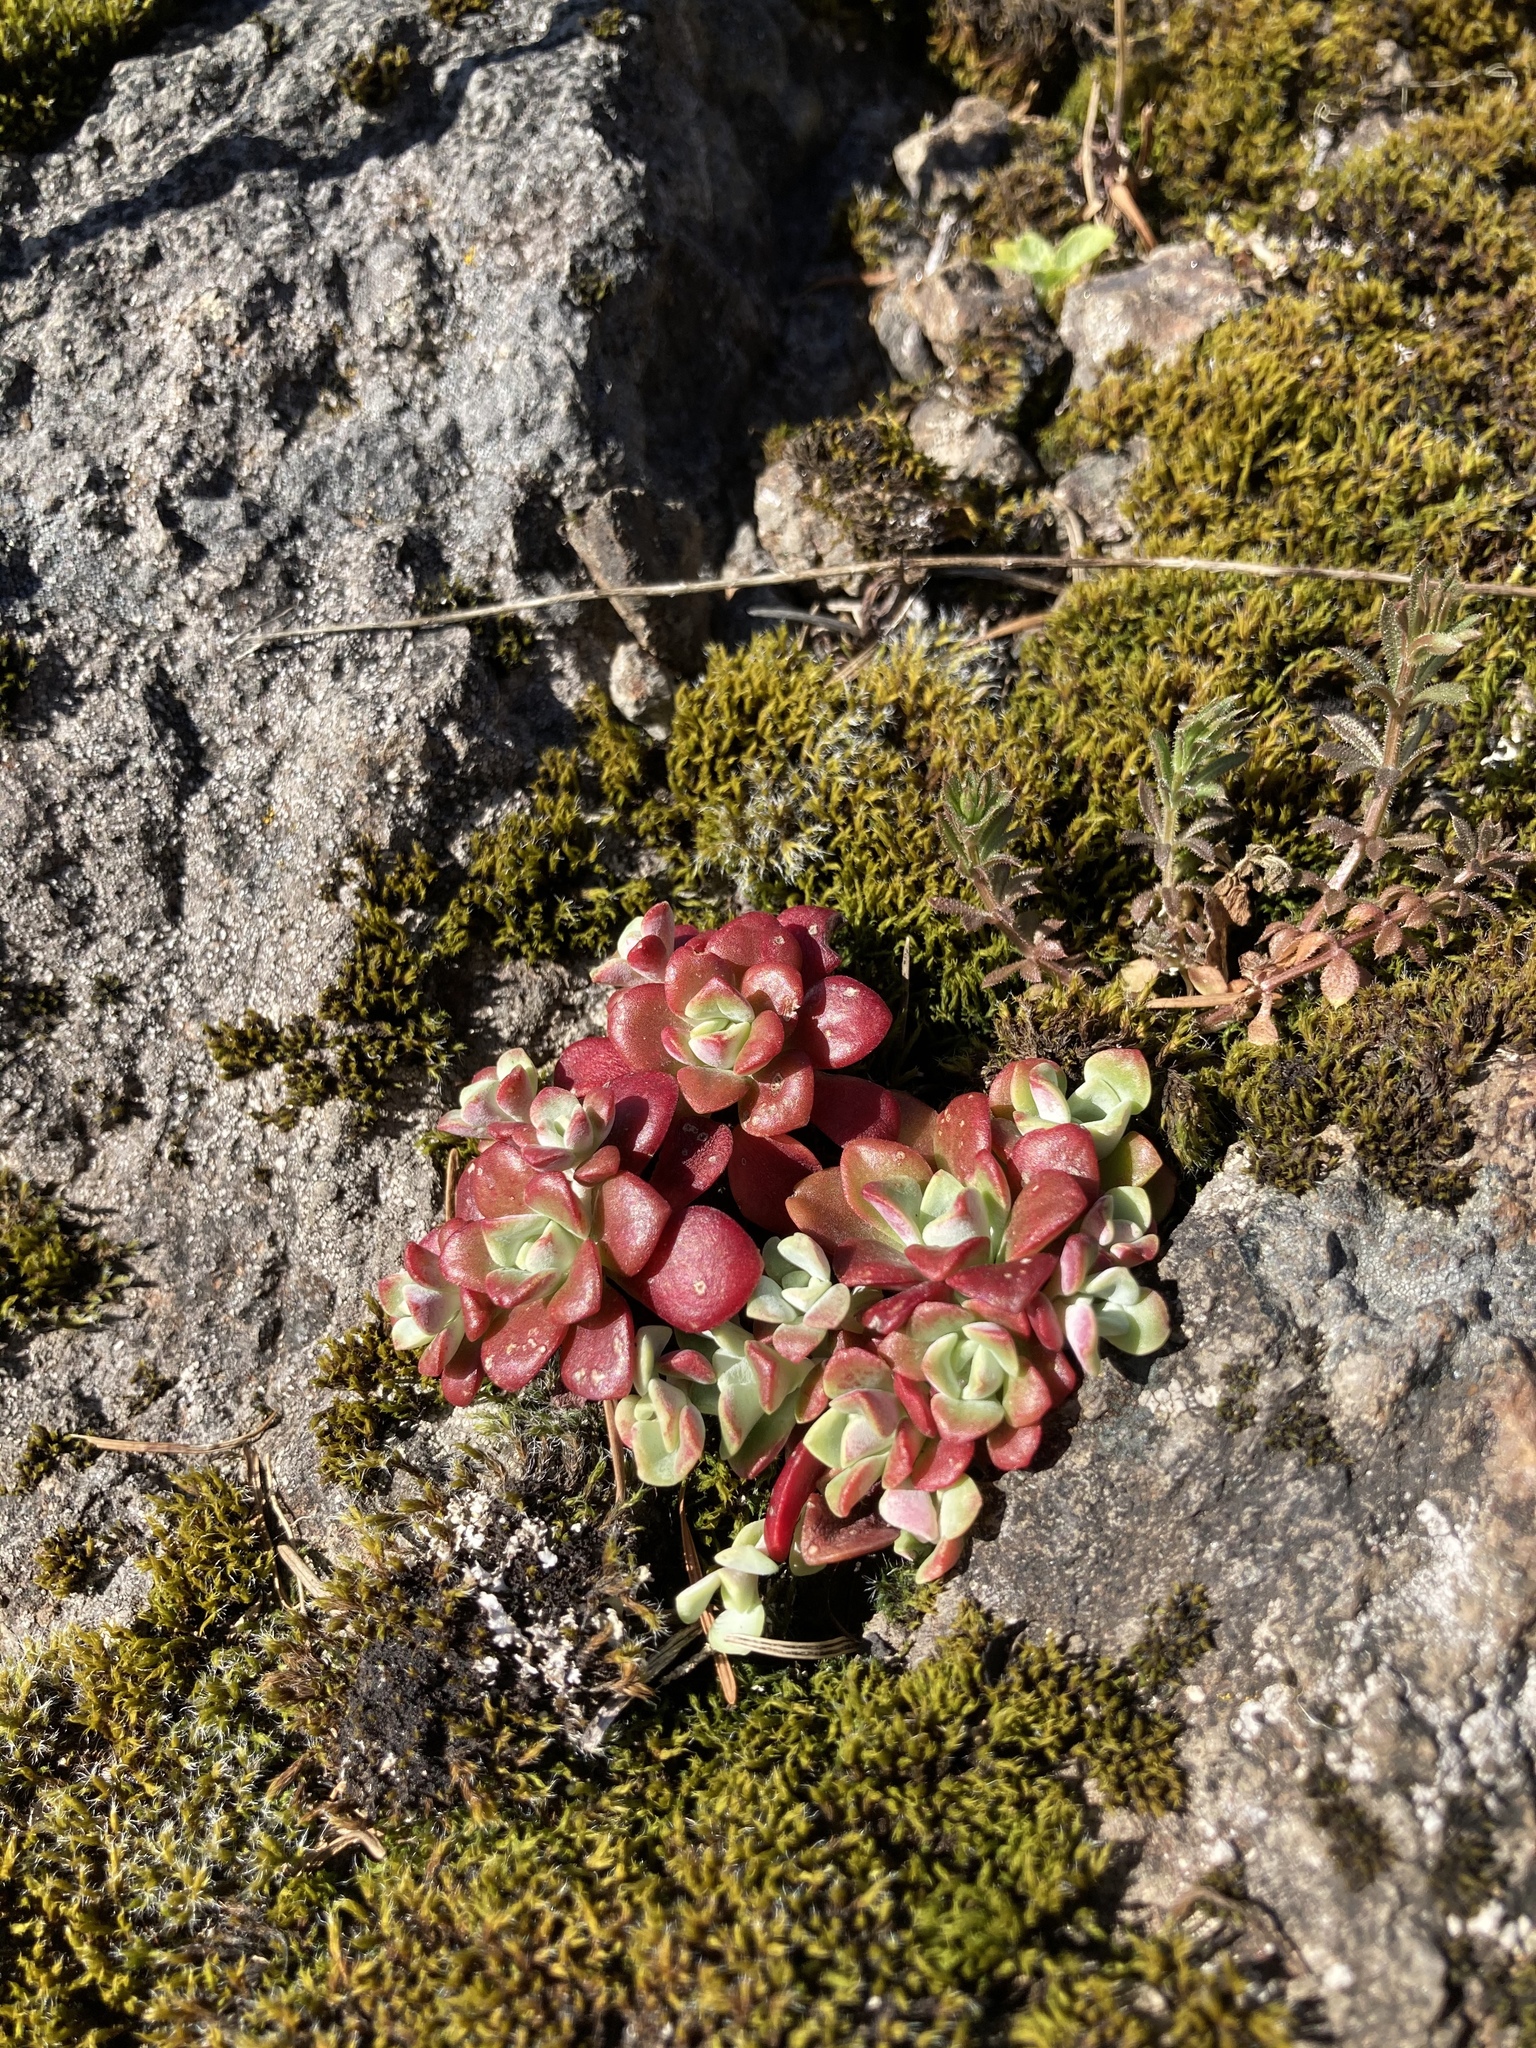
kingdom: Plantae
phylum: Tracheophyta
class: Magnoliopsida
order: Saxifragales
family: Crassulaceae
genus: Sedum
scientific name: Sedum spathulifolium
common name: Colorado stonecrop
